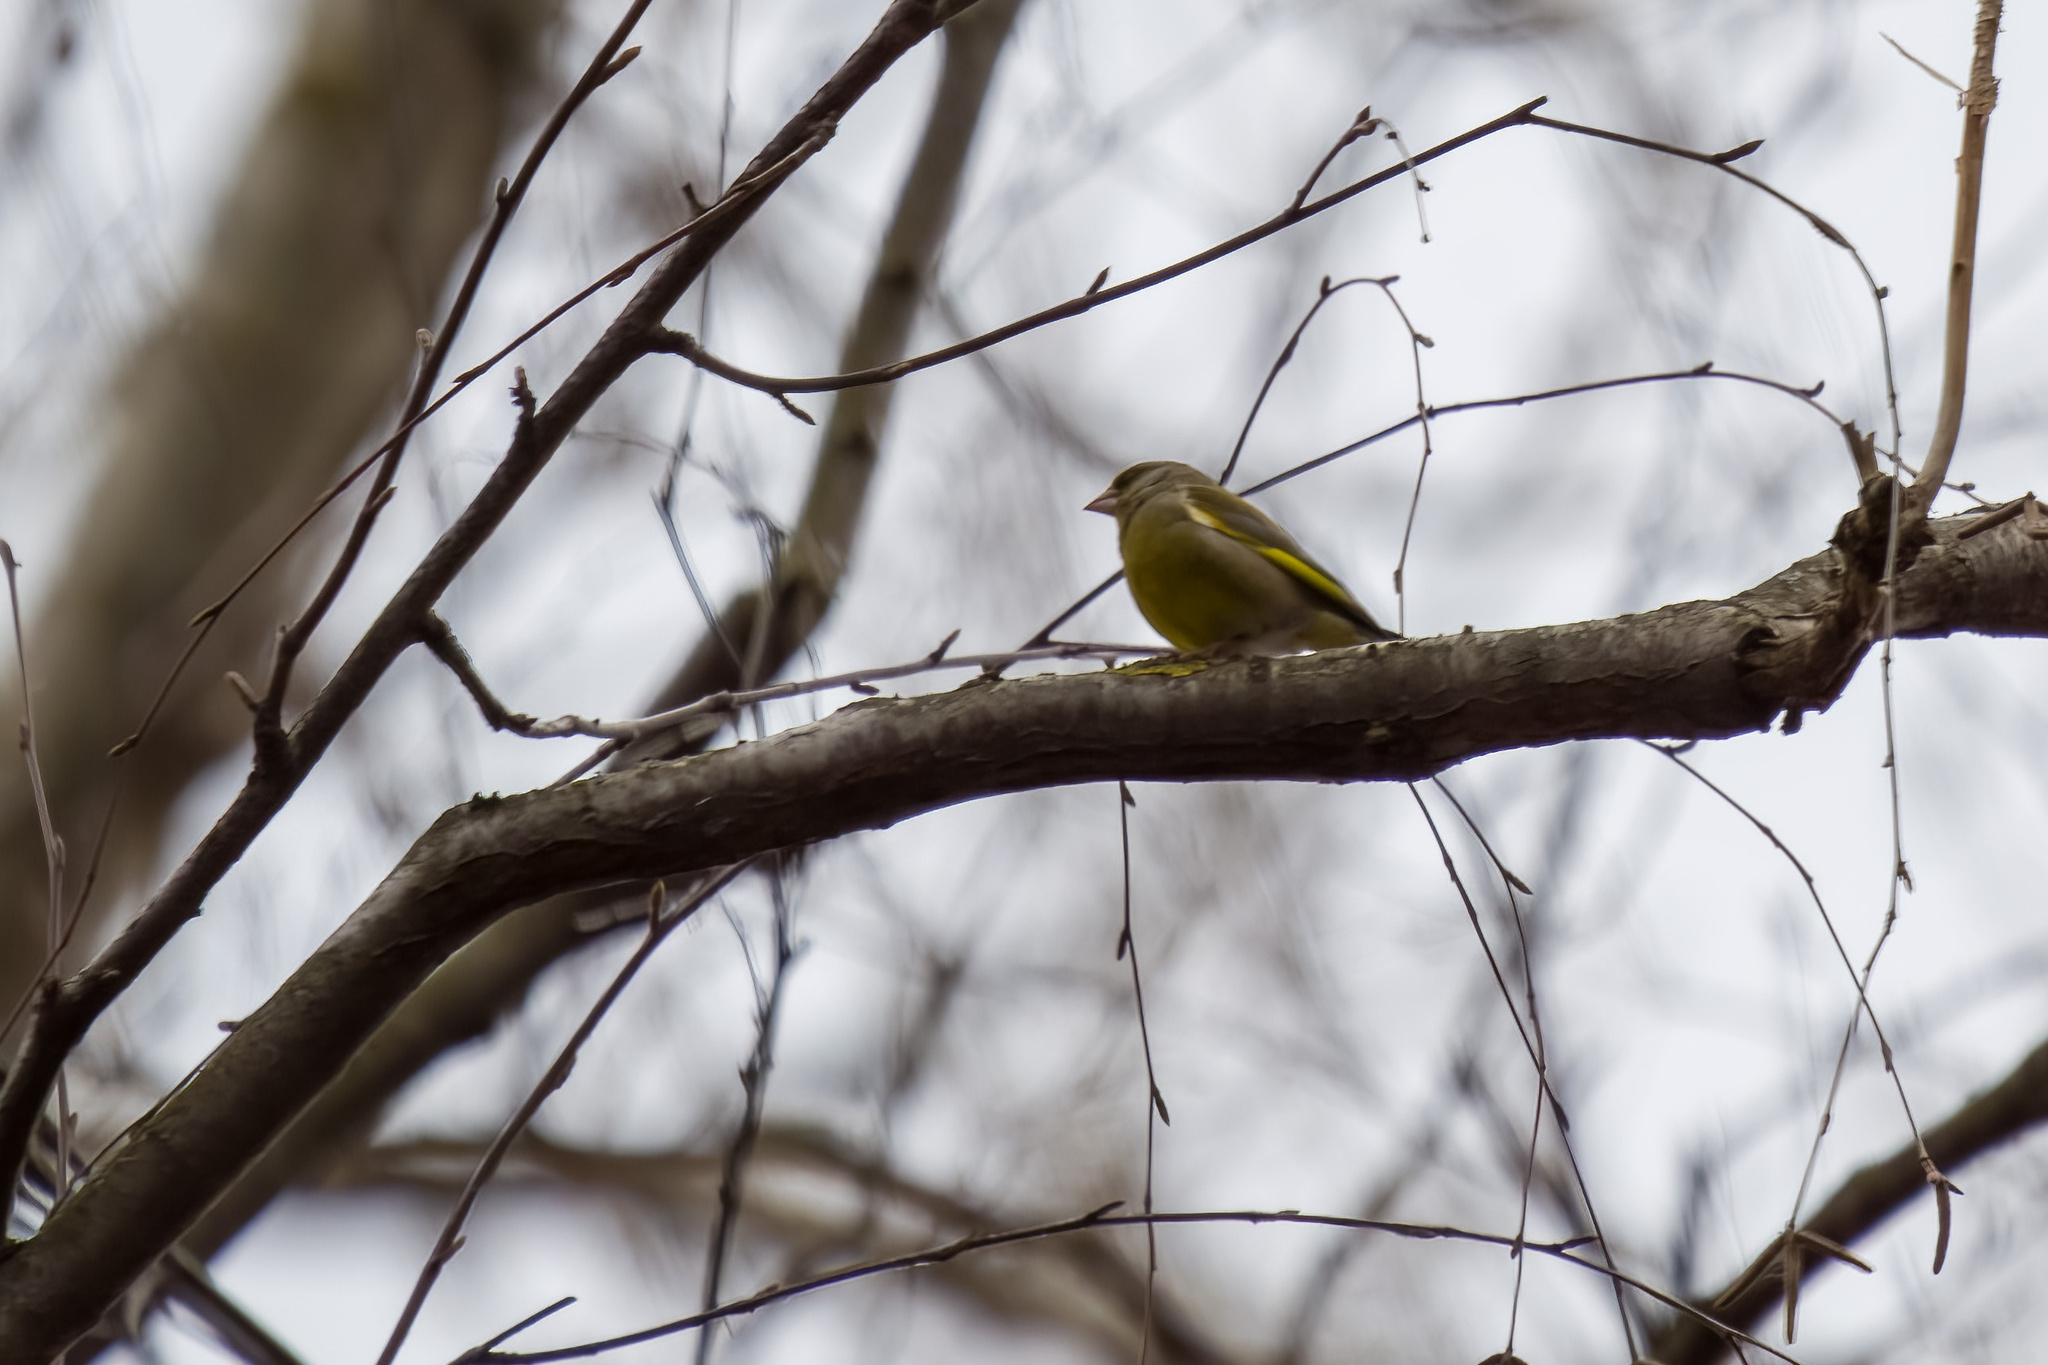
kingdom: Plantae
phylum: Tracheophyta
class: Liliopsida
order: Poales
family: Poaceae
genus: Chloris
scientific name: Chloris chloris
